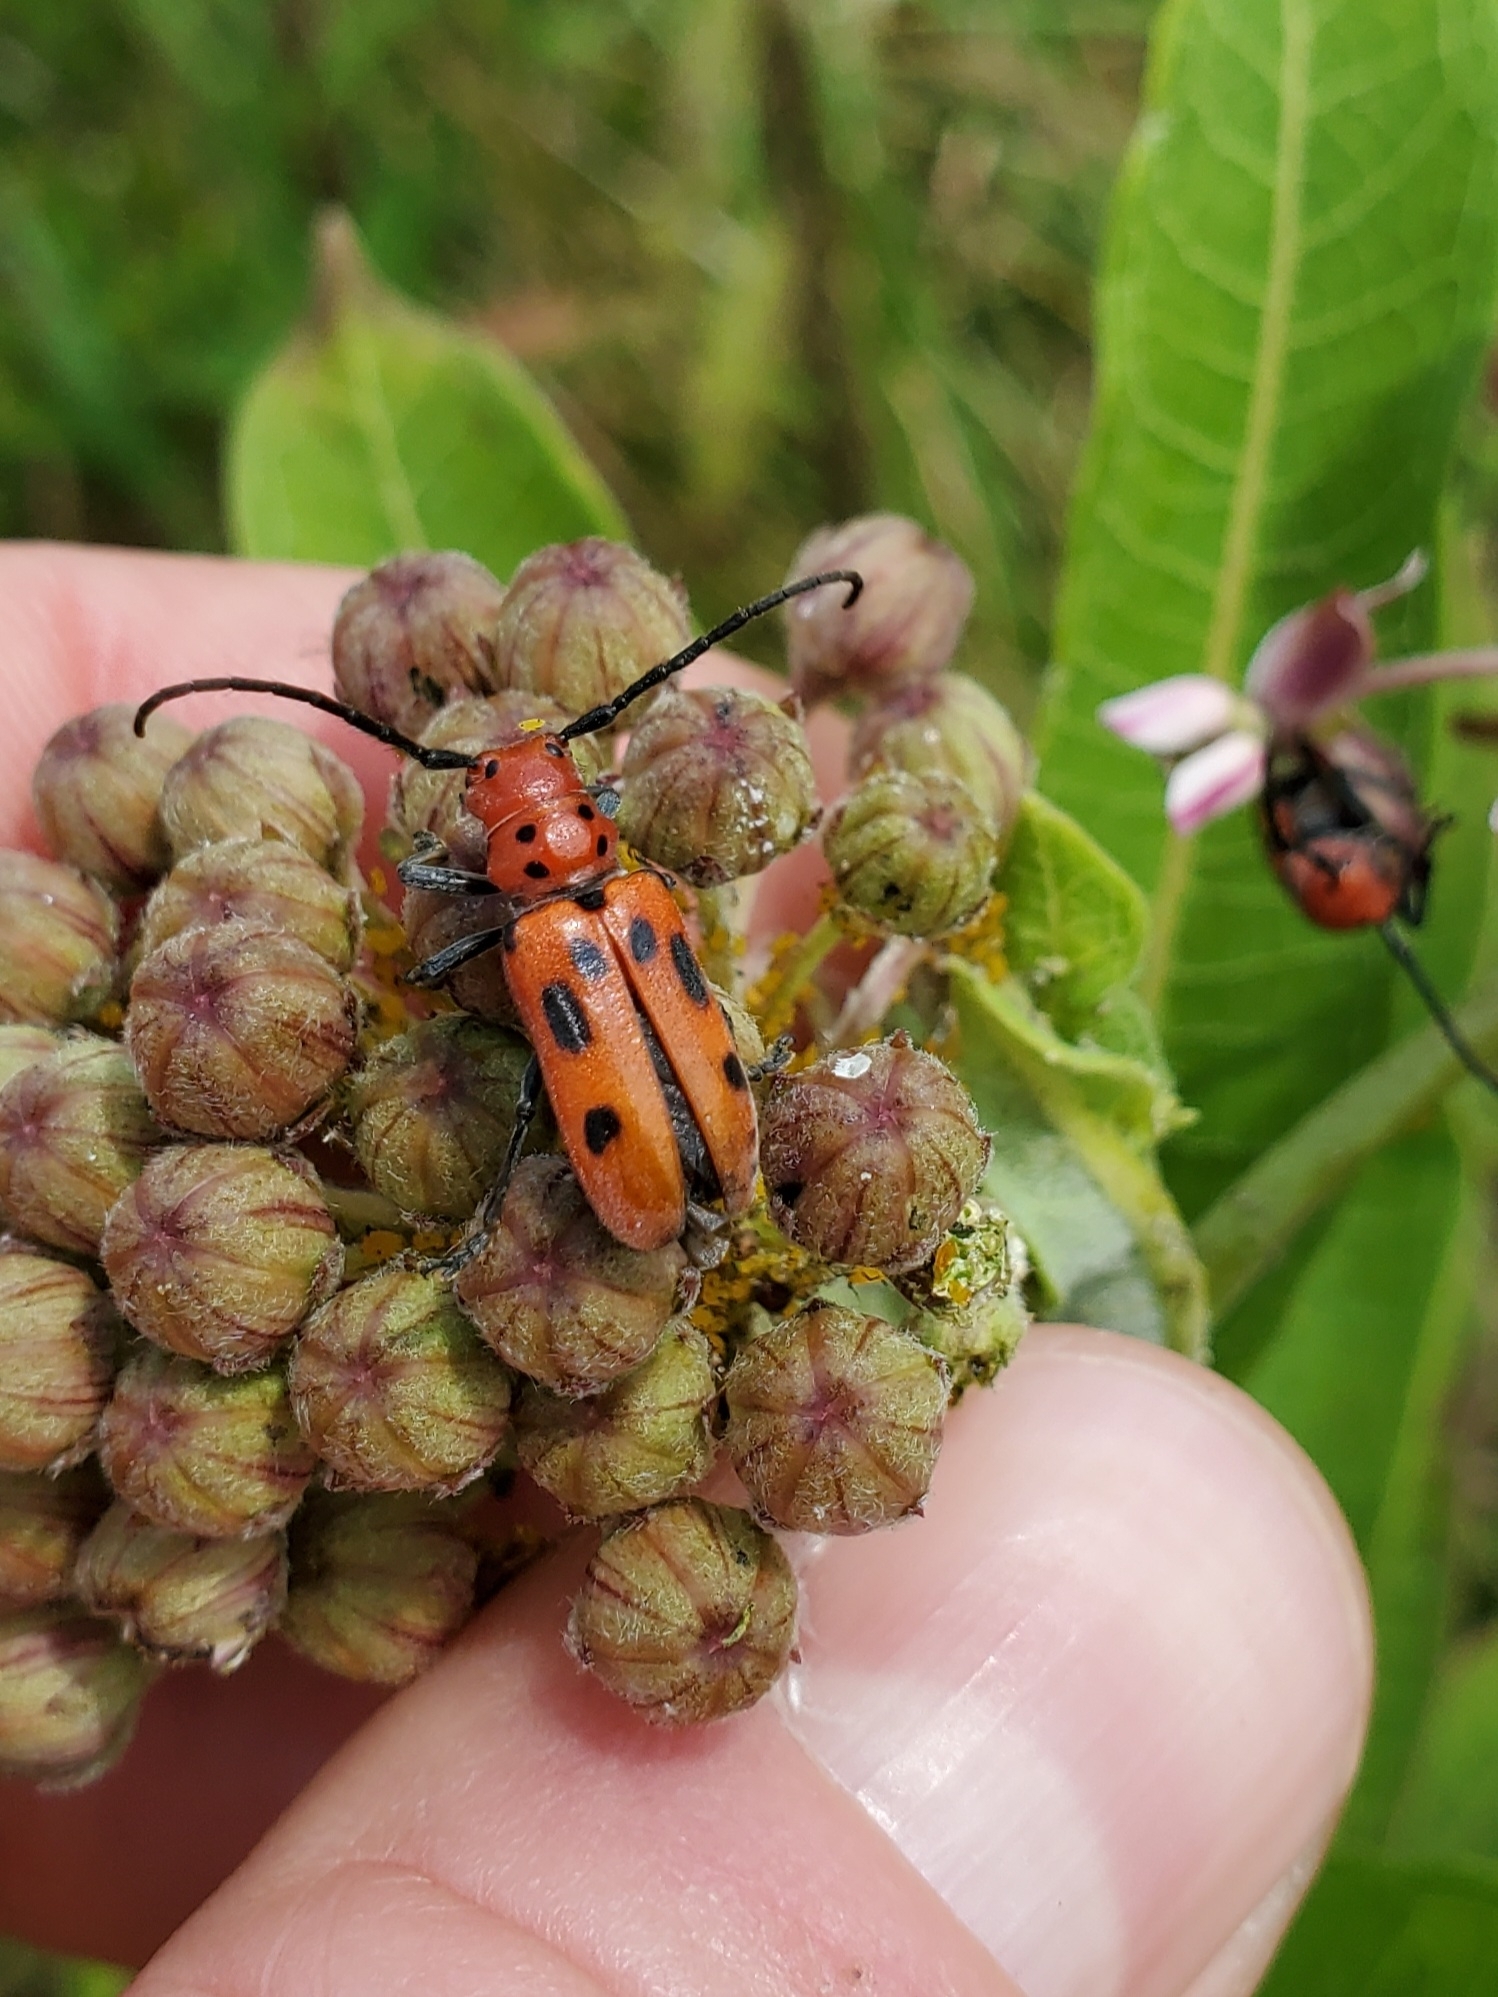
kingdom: Animalia
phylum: Arthropoda
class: Insecta
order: Coleoptera
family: Cerambycidae
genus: Tetraopes
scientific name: Tetraopes tetrophthalmus
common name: Red milkweed beetle
